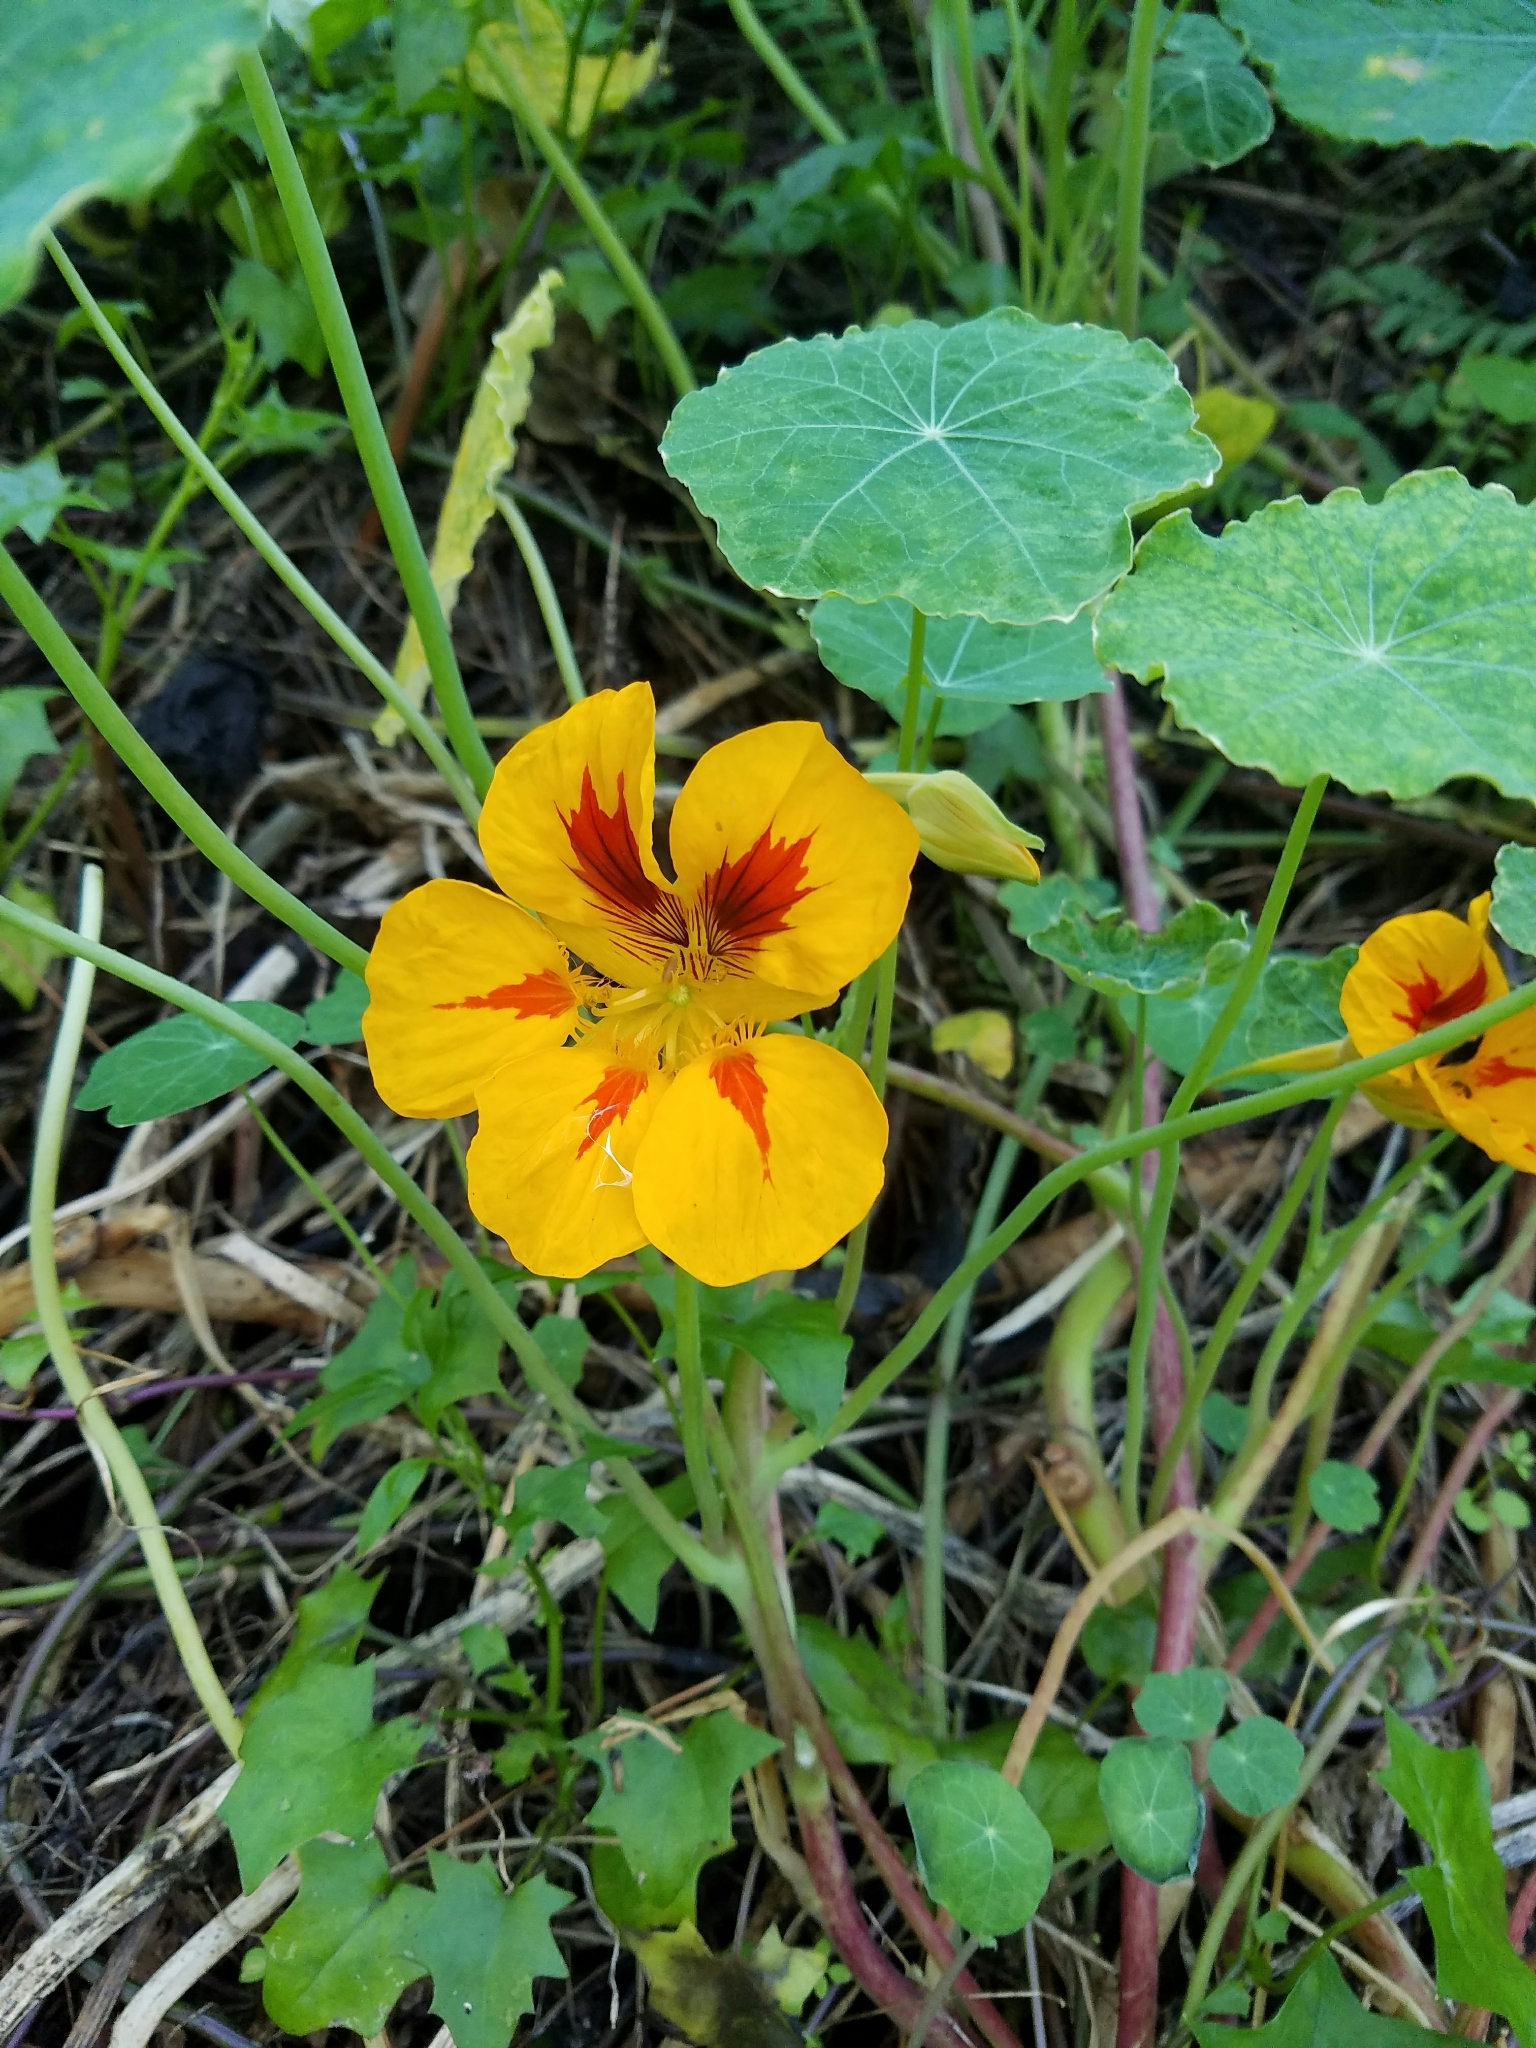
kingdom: Plantae
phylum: Tracheophyta
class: Magnoliopsida
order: Brassicales
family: Tropaeolaceae
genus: Tropaeolum
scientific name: Tropaeolum majus
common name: Nasturtium
